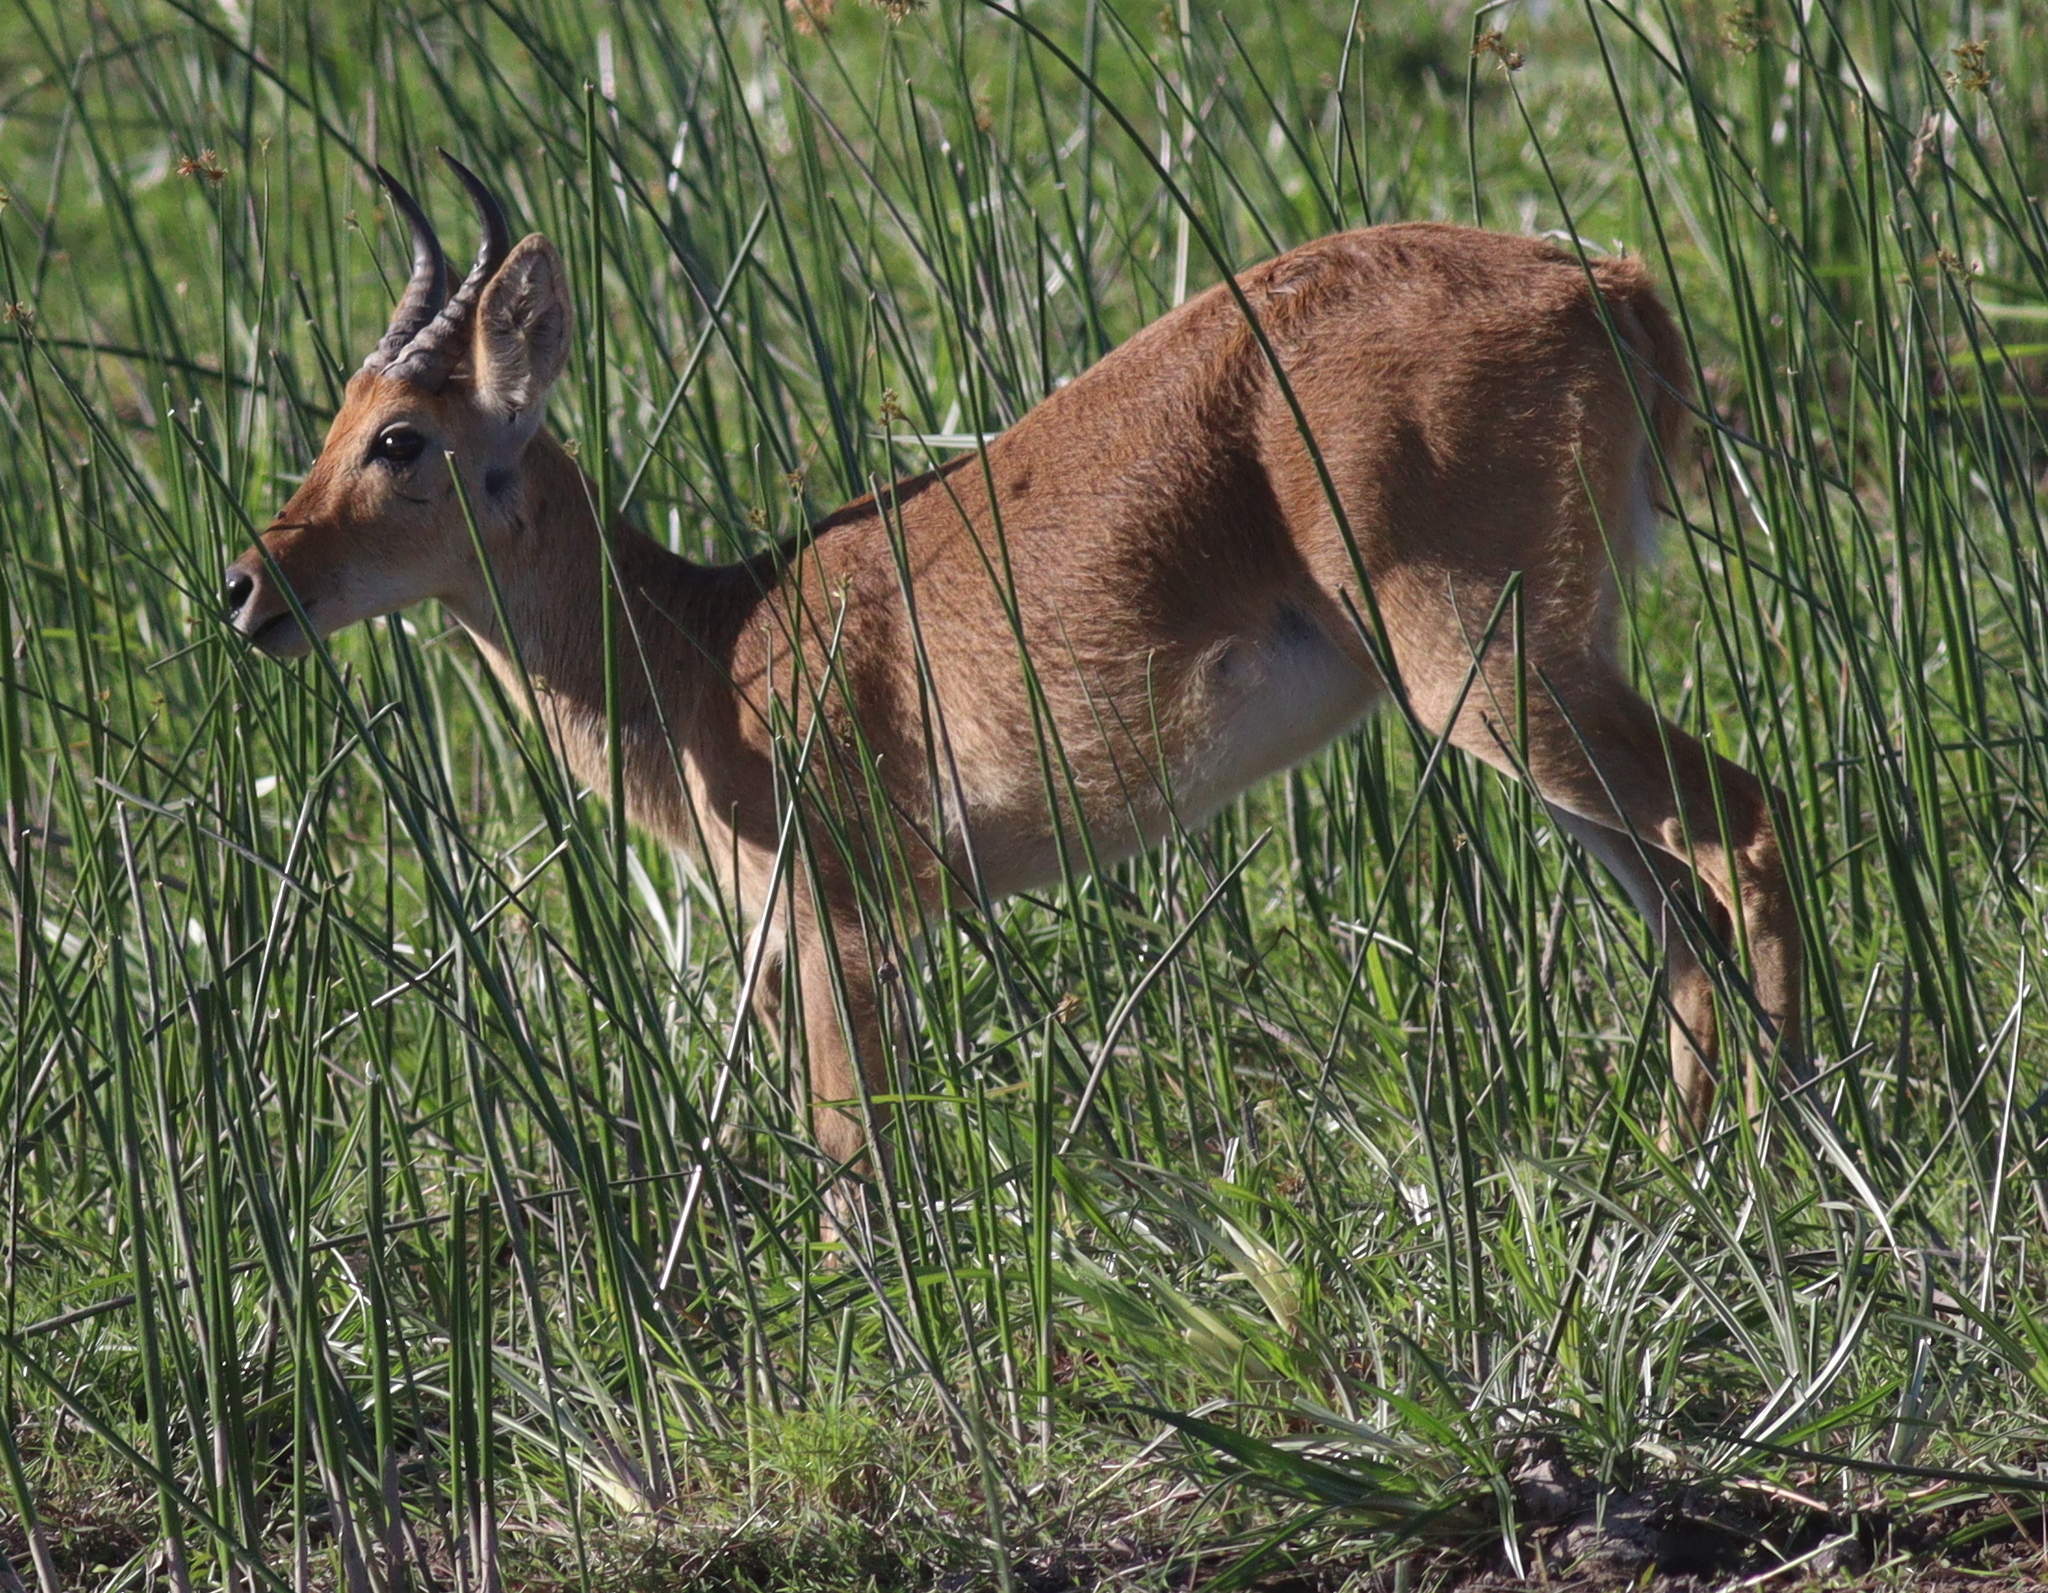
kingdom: Animalia
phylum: Chordata
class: Mammalia
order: Artiodactyla
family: Bovidae
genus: Redunca
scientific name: Redunca redunca
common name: Common reedbuck
